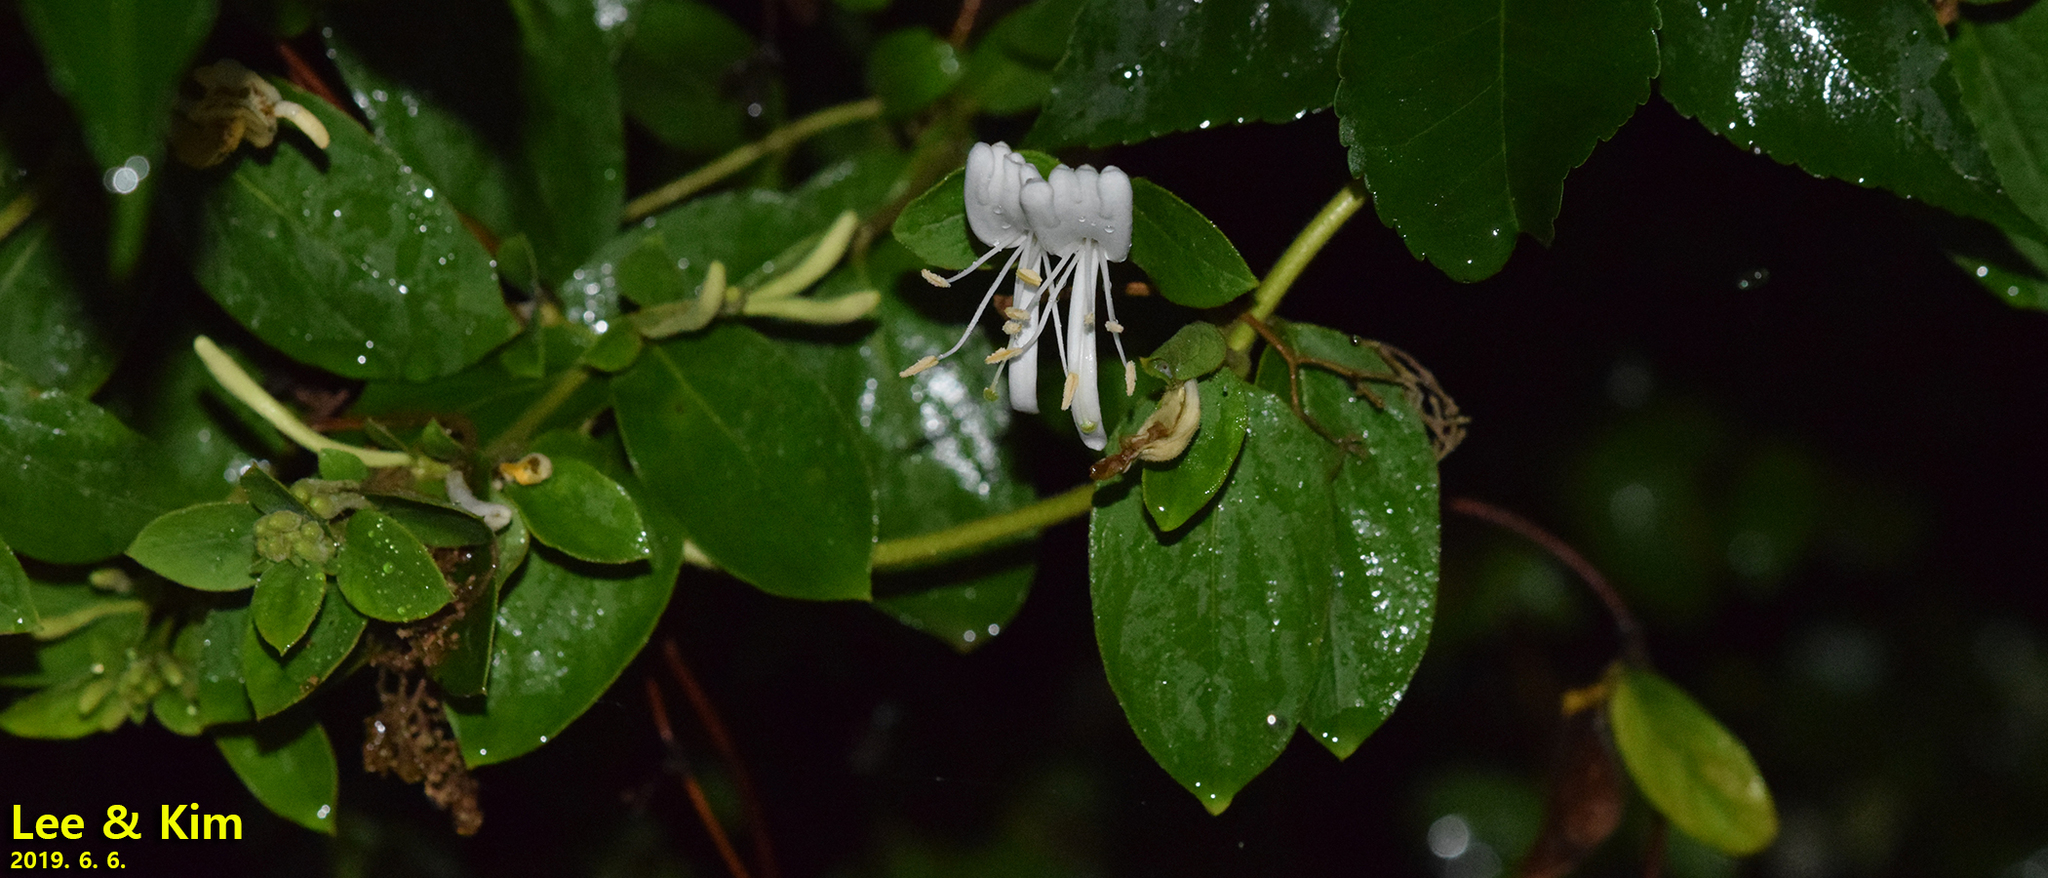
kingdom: Plantae
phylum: Tracheophyta
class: Magnoliopsida
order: Dipsacales
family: Caprifoliaceae
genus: Lonicera
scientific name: Lonicera japonica
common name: Japanese honeysuckle
